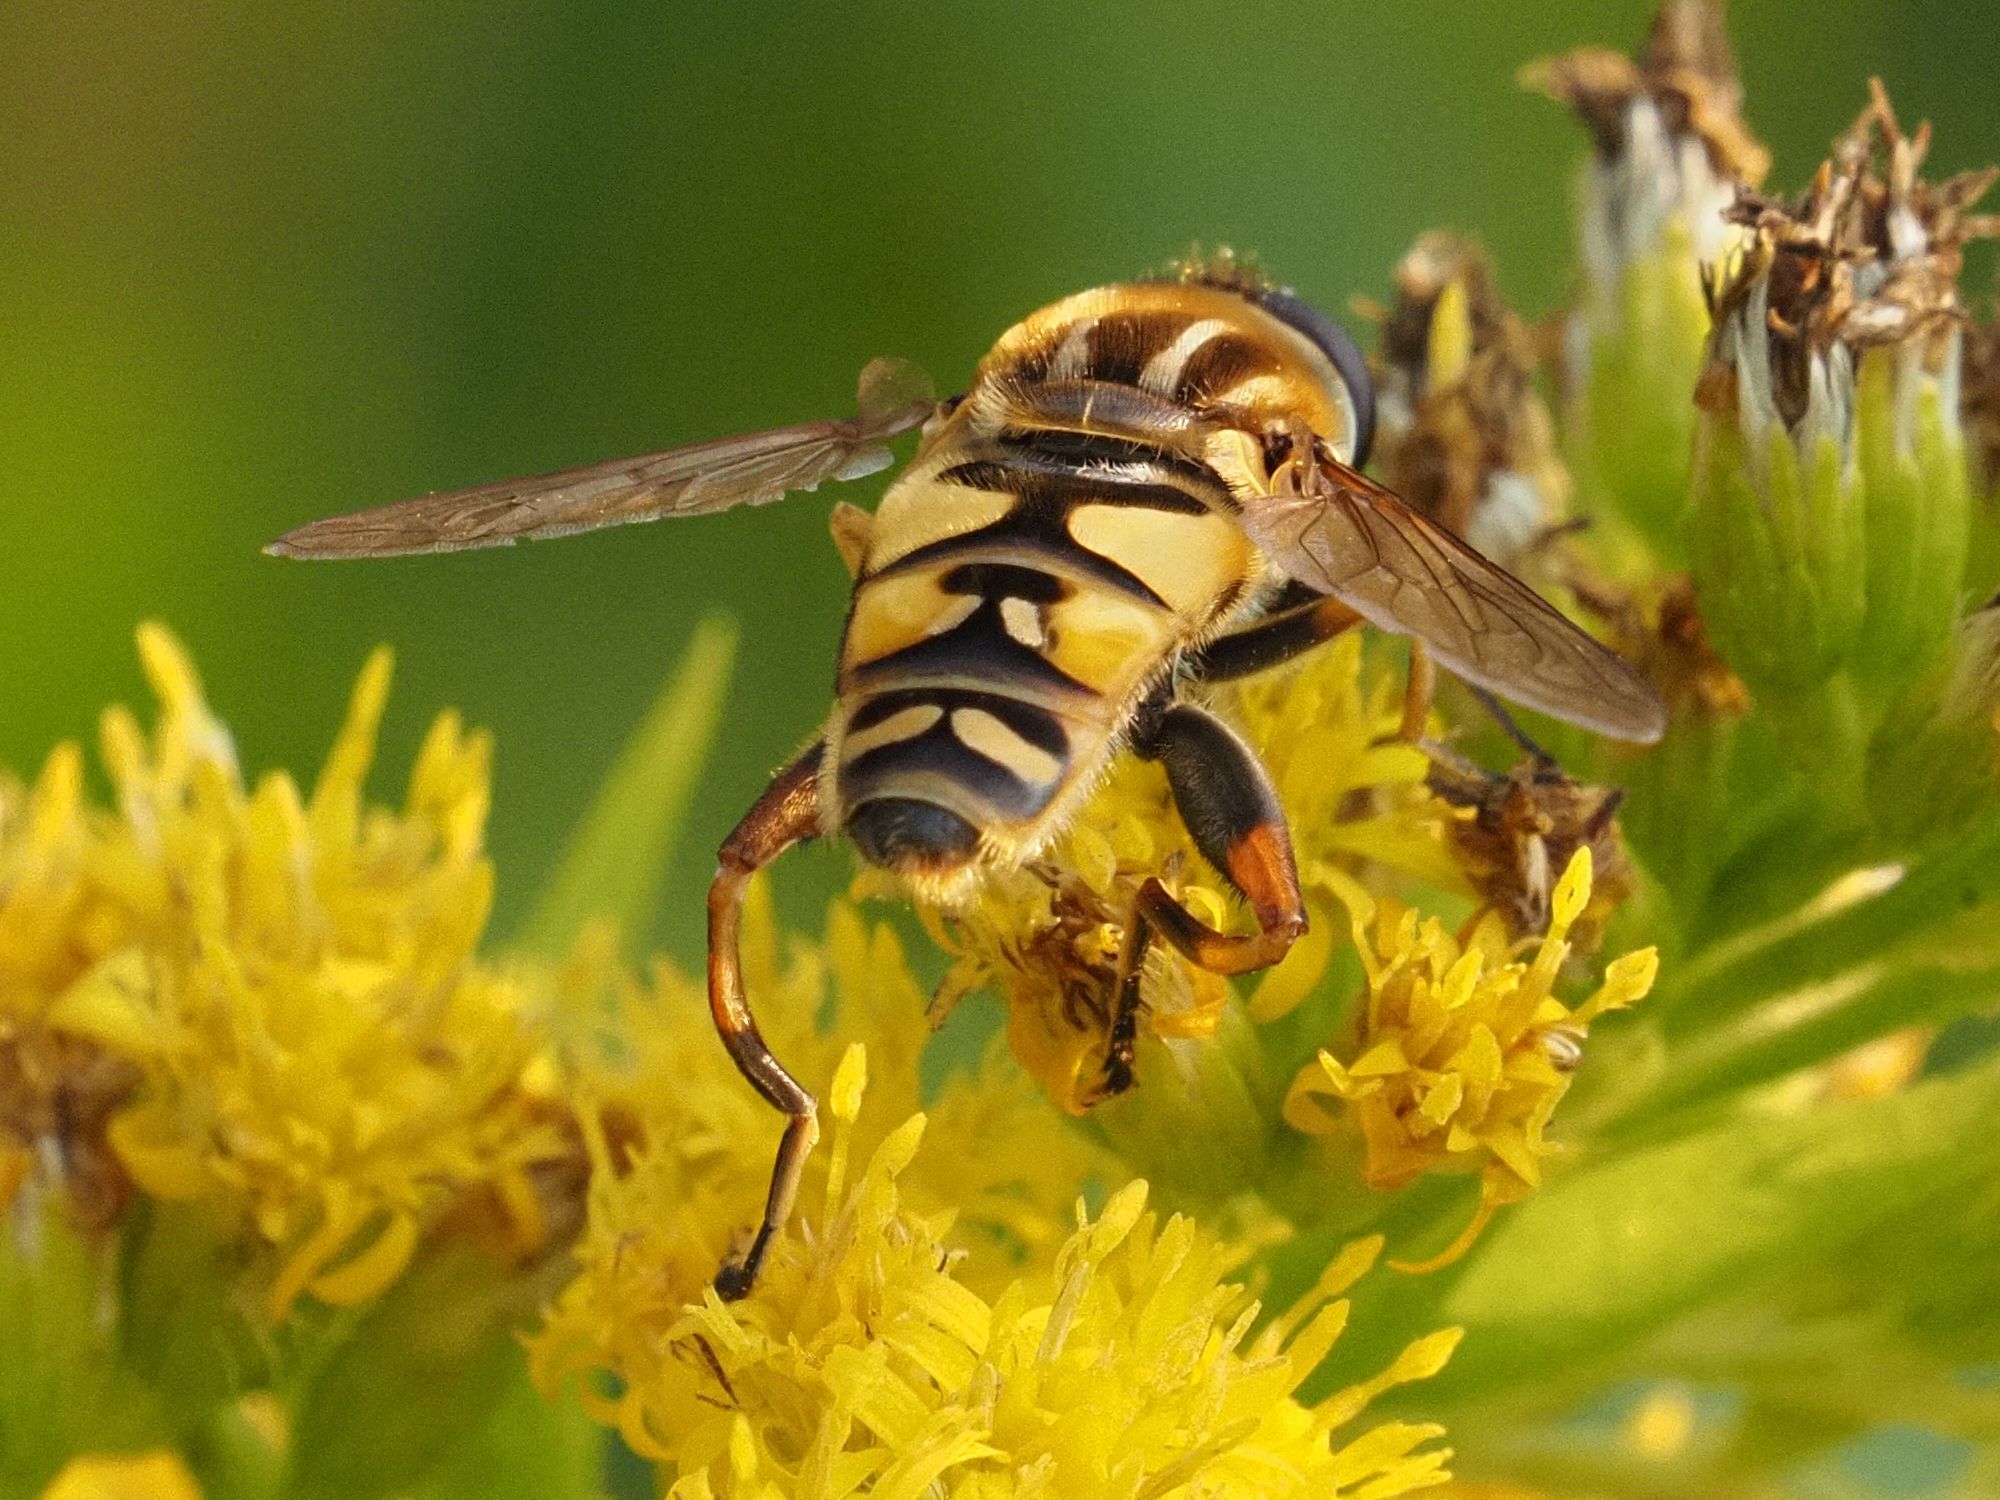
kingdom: Animalia
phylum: Arthropoda
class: Insecta
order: Diptera
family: Syrphidae
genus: Helophilus
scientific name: Helophilus pendulus
